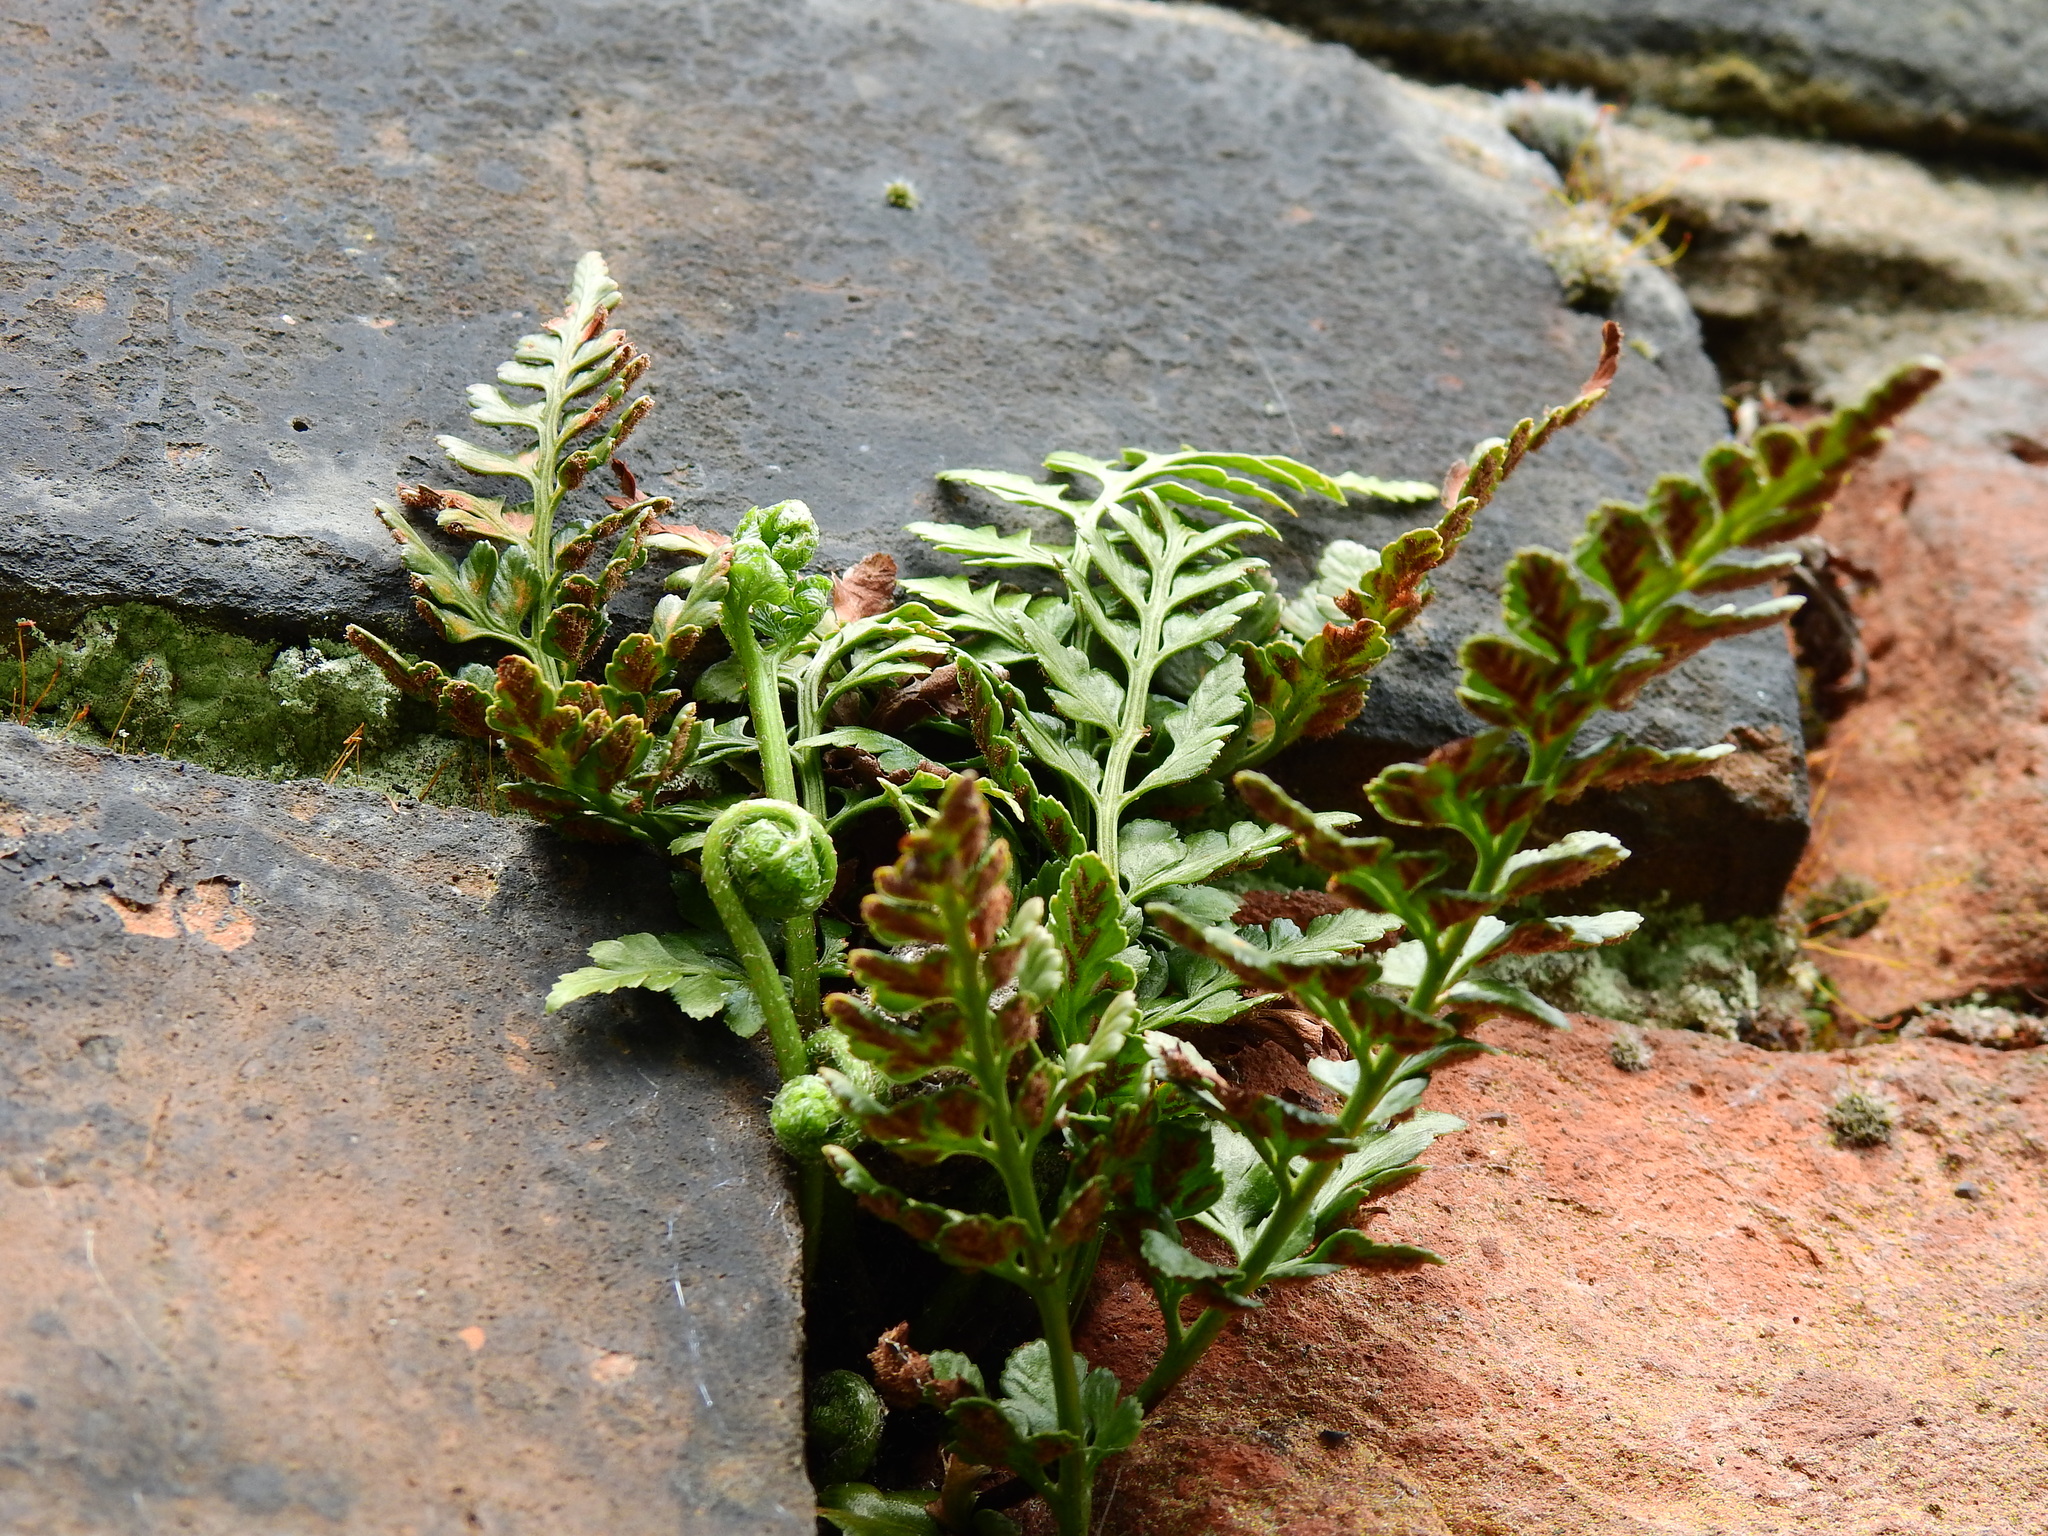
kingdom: Plantae
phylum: Tracheophyta
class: Polypodiopsida
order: Polypodiales
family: Aspleniaceae
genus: Asplenium
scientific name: Asplenium adiantum-nigrum
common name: Black spleenwort
